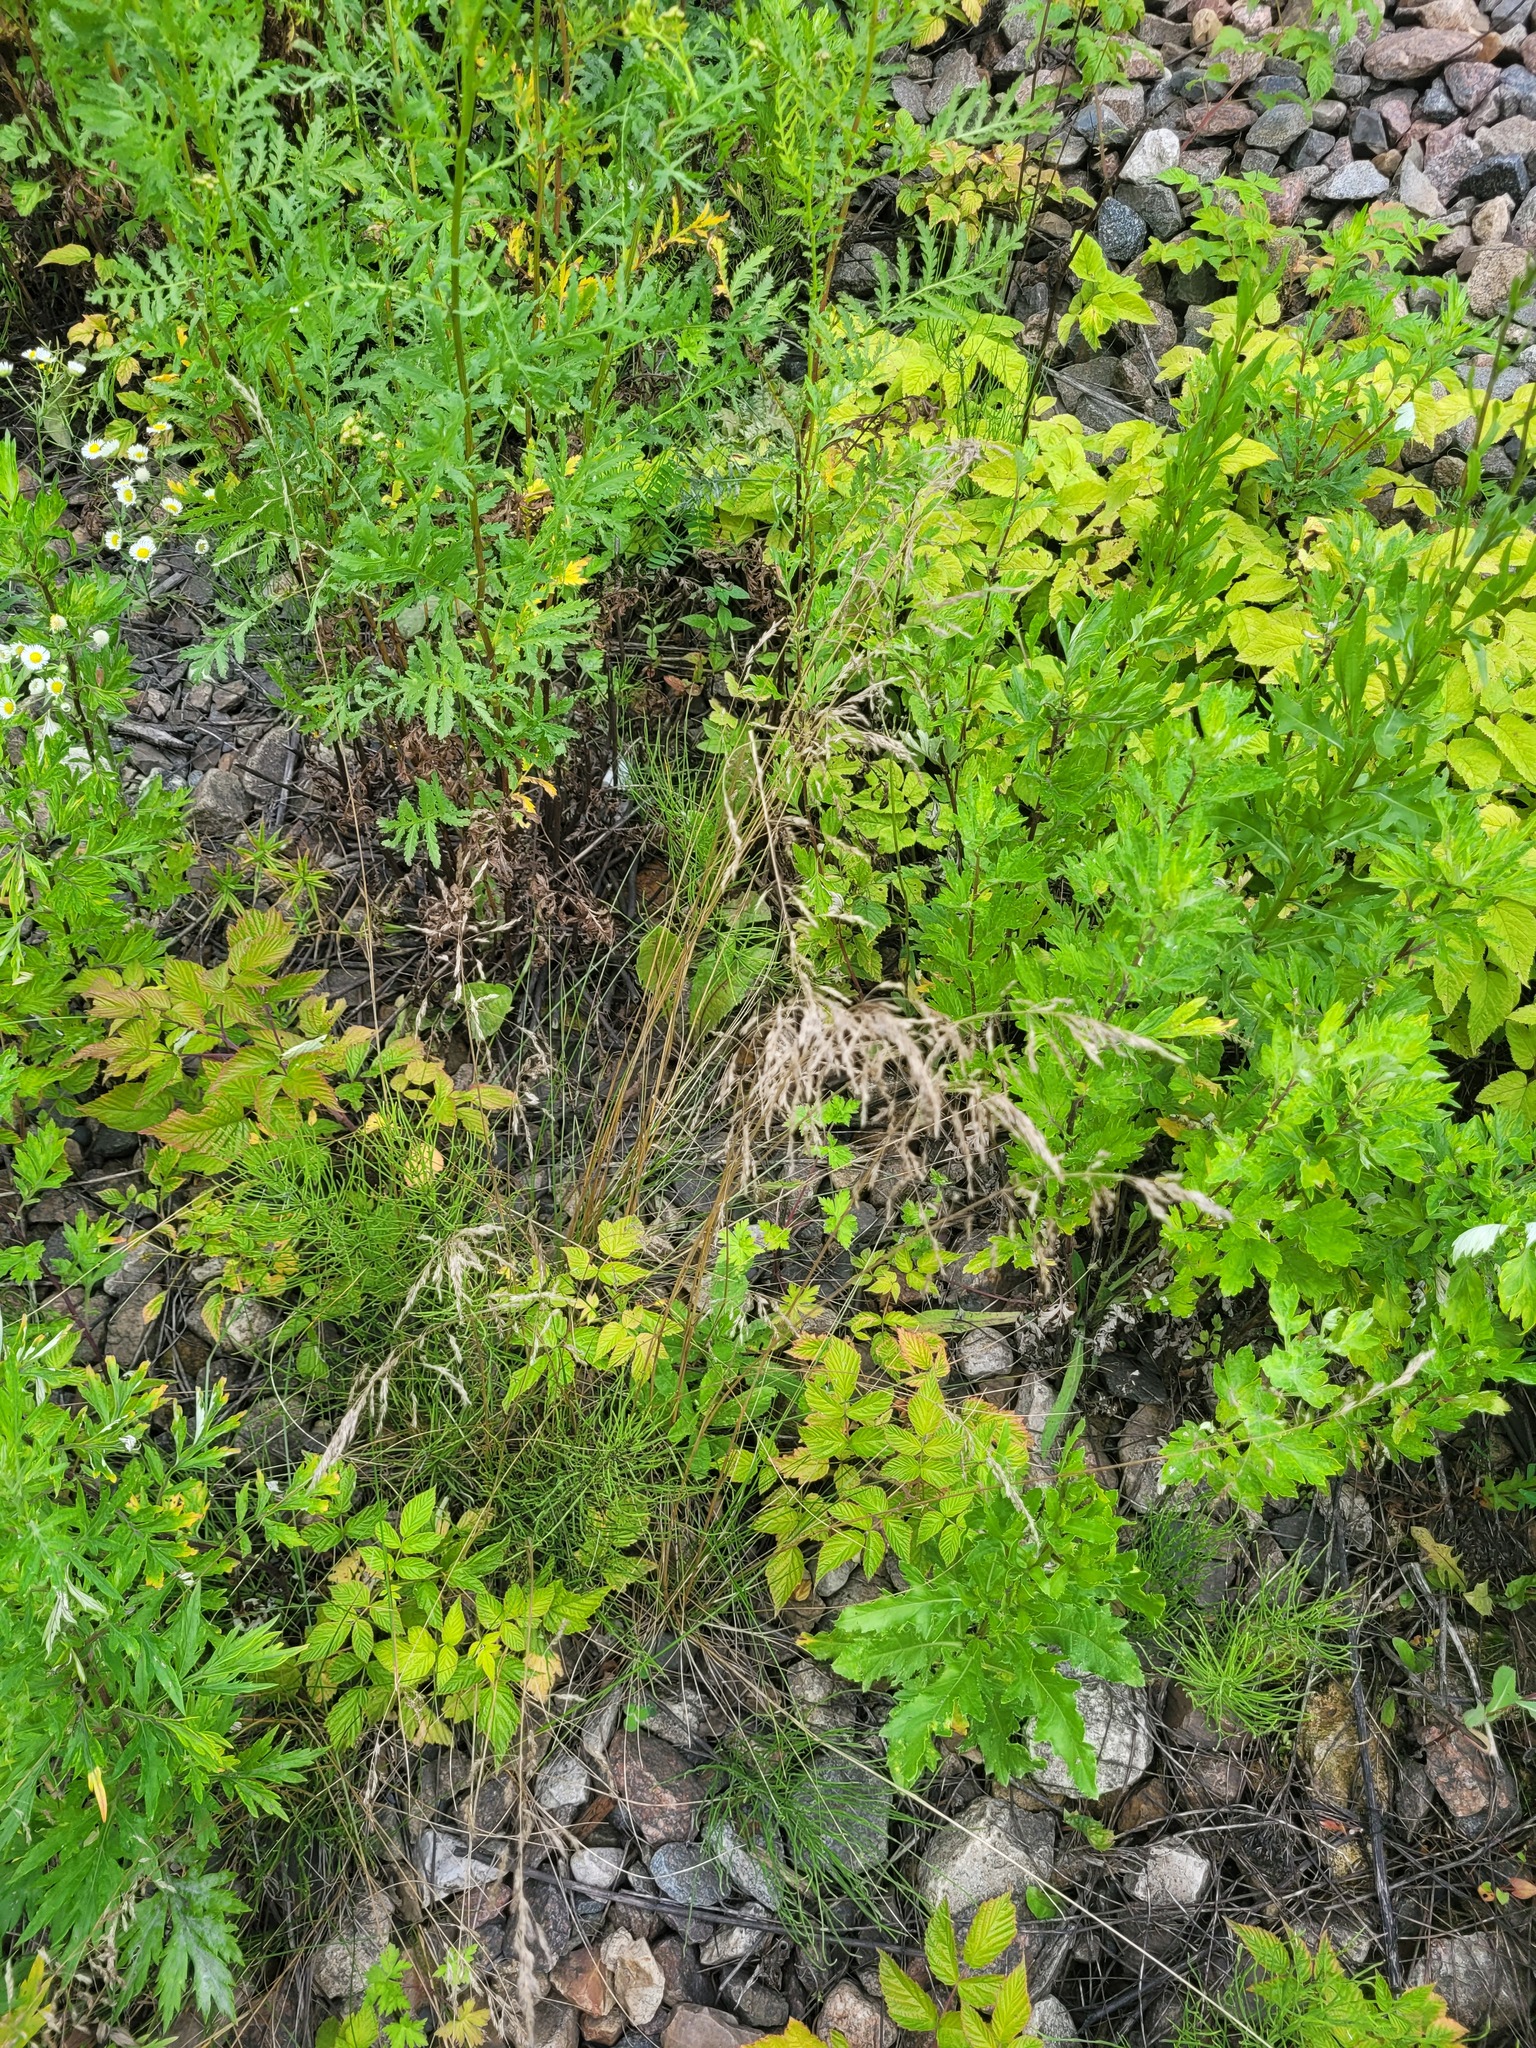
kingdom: Plantae
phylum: Tracheophyta
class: Liliopsida
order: Poales
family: Poaceae
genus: Poa
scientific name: Poa angustifolia
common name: Narrow-leaved meadow-grass
